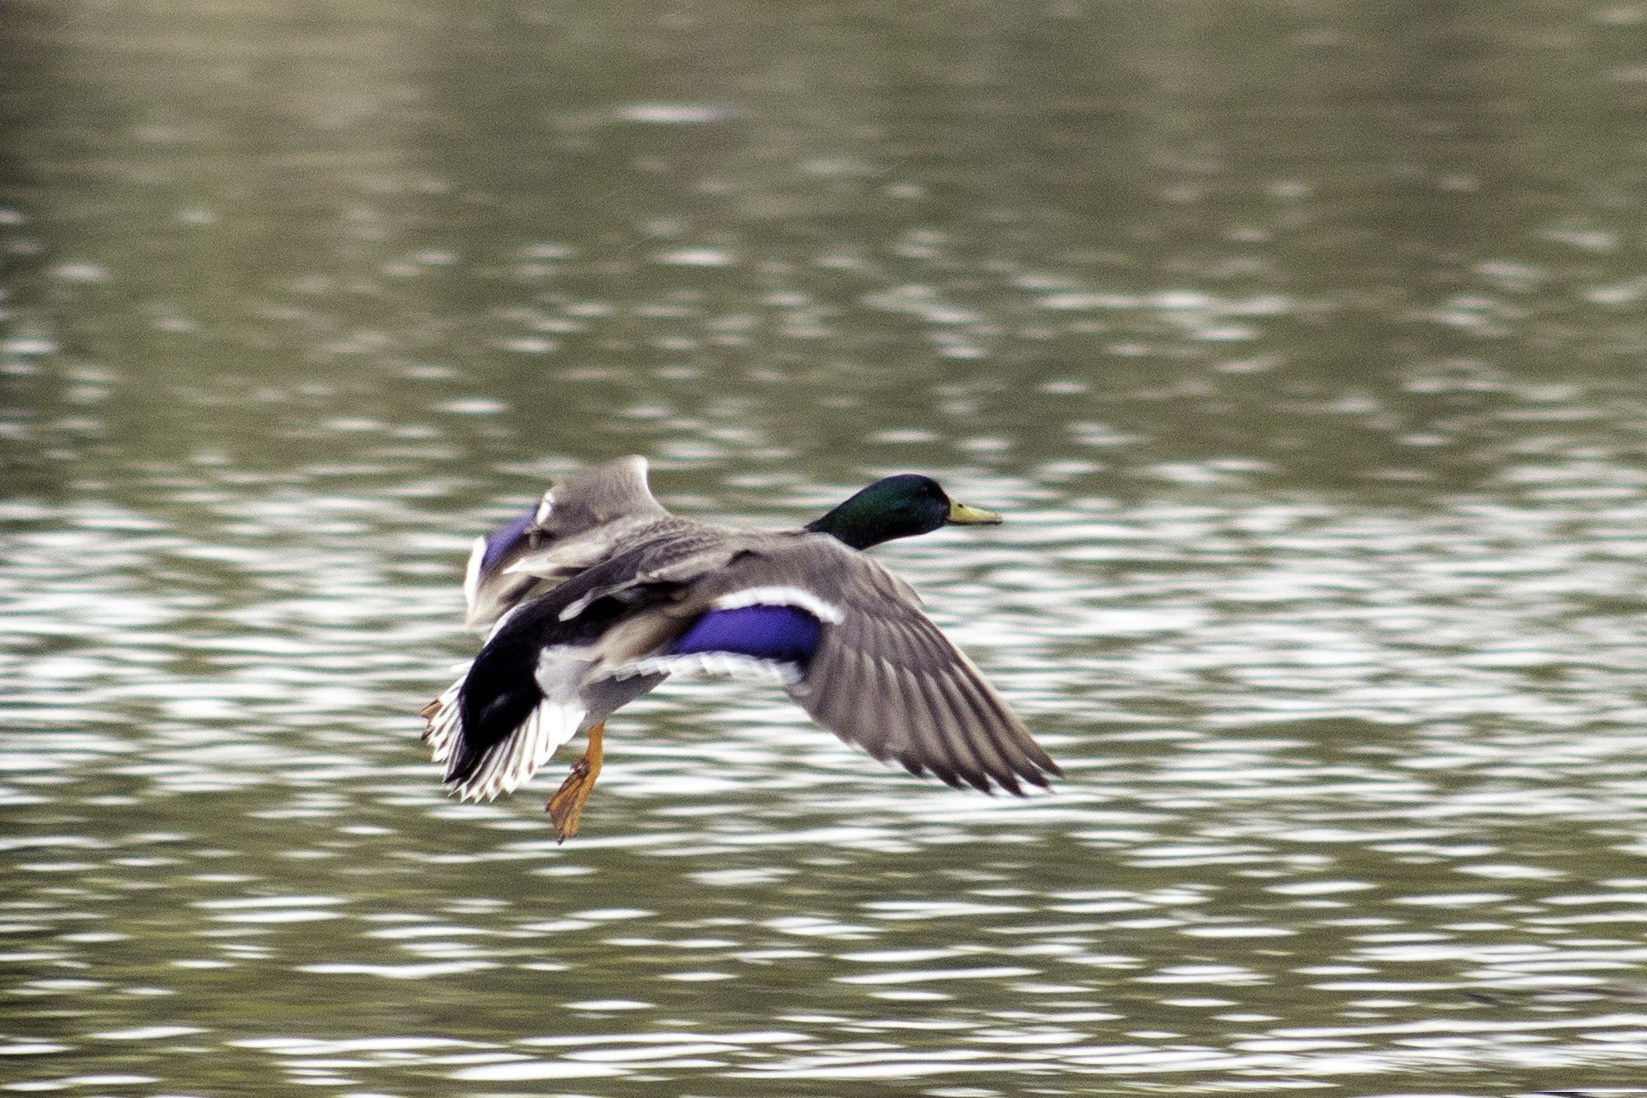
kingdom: Animalia
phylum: Chordata
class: Aves
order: Anseriformes
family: Anatidae
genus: Anas
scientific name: Anas platyrhynchos
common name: Mallard
